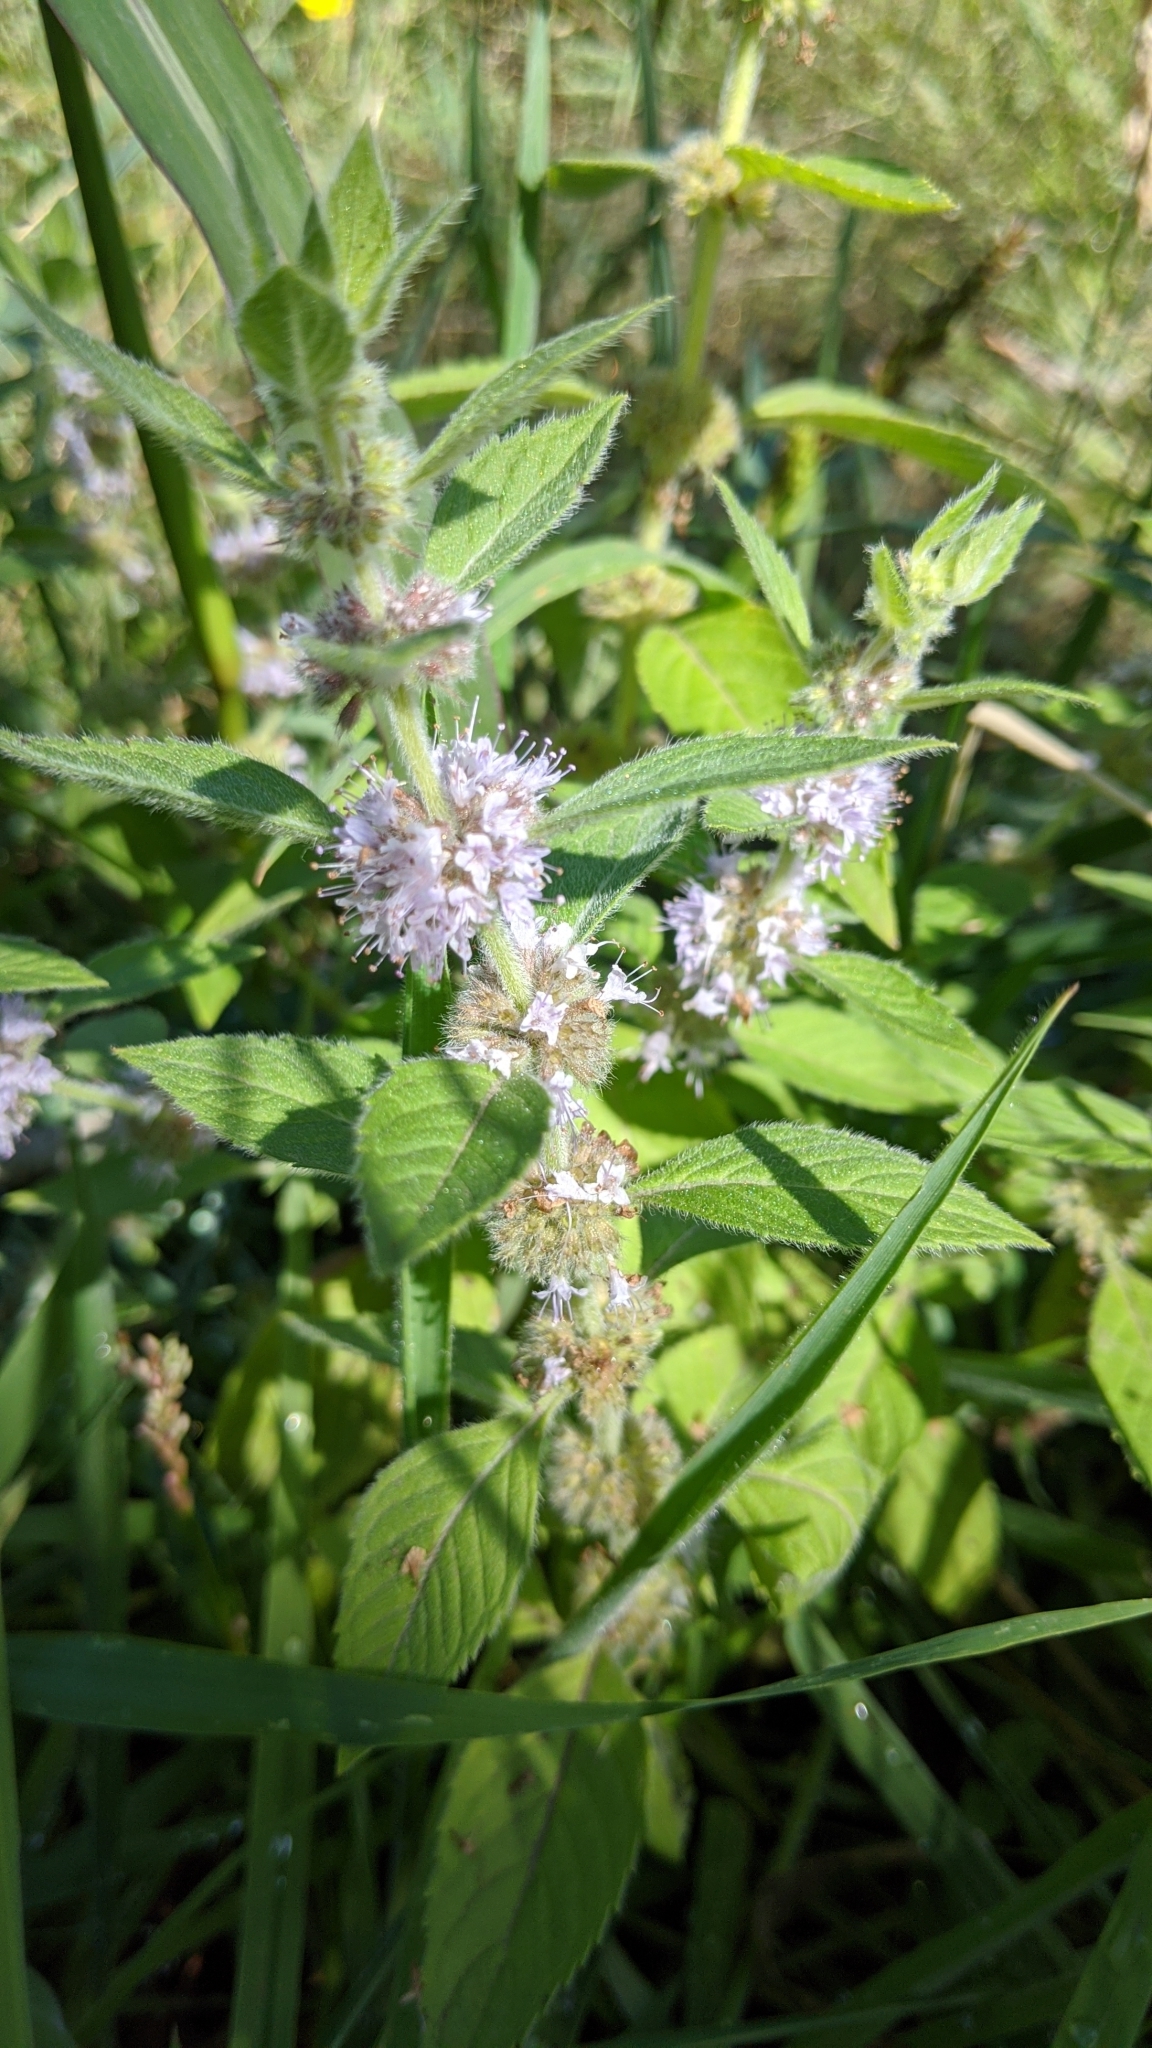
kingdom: Plantae
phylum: Tracheophyta
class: Magnoliopsida
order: Lamiales
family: Lamiaceae
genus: Mentha
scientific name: Mentha canadensis
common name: American corn mint
